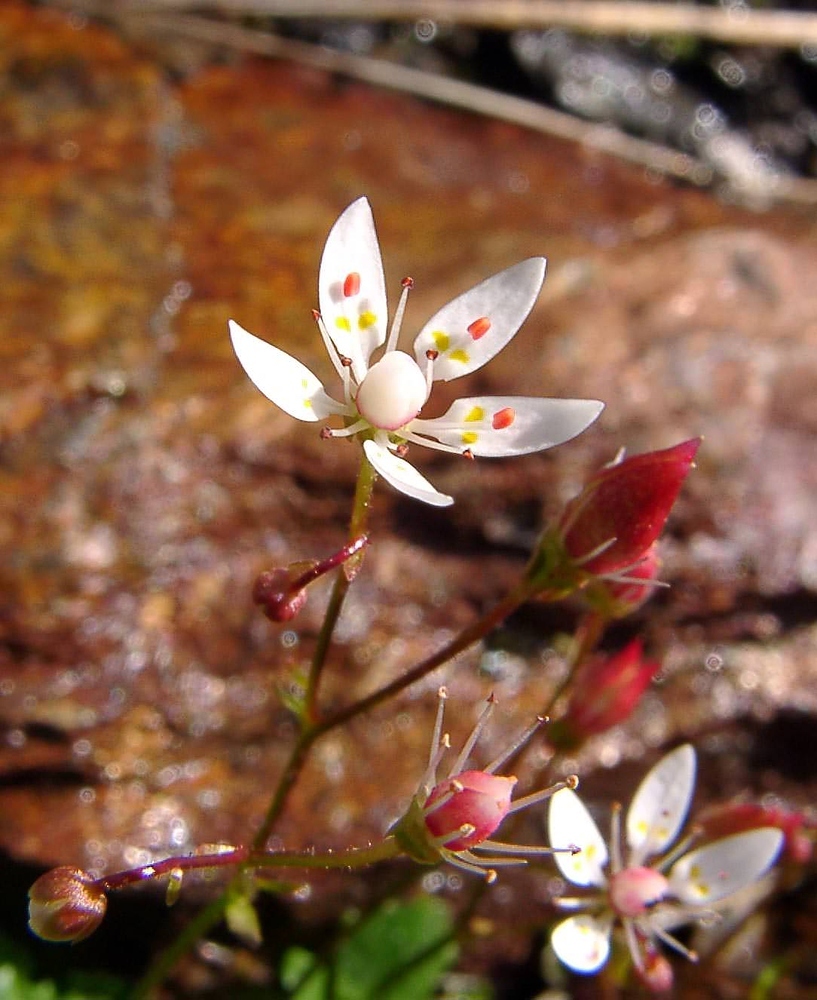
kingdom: Plantae
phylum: Tracheophyta
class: Magnoliopsida
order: Saxifragales
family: Saxifragaceae
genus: Micranthes
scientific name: Micranthes stellaris
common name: Starry saxifrage
